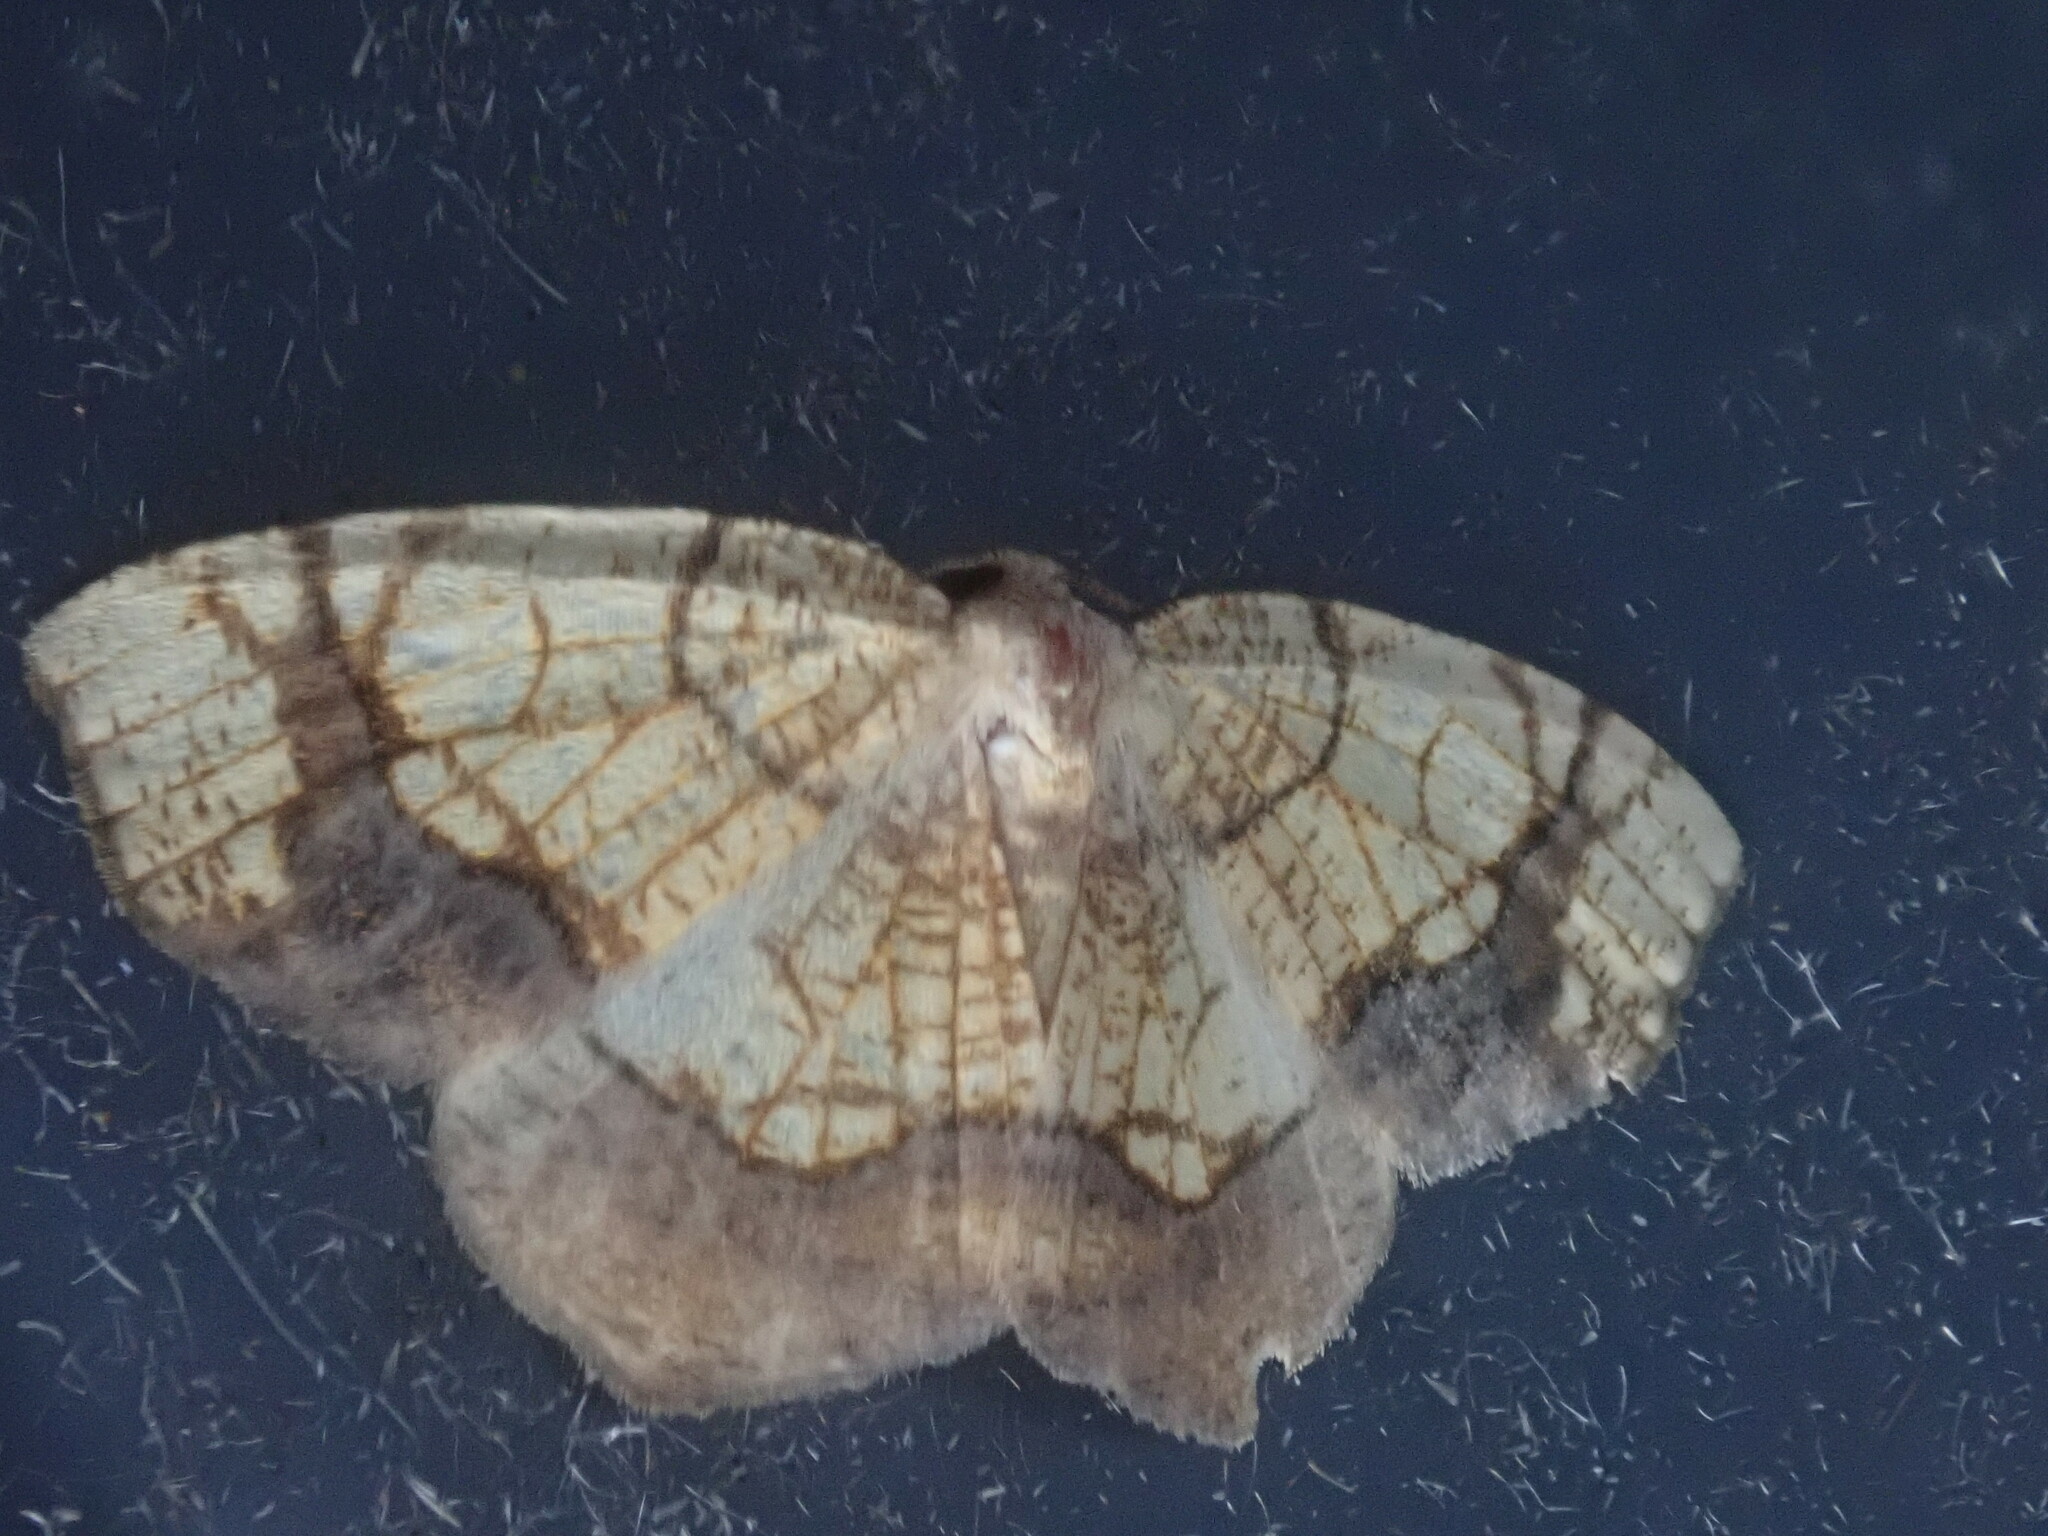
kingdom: Animalia
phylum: Arthropoda
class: Insecta
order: Lepidoptera
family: Geometridae
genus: Nematocampa
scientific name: Nematocampa resistaria
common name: Horned spanworm moth
